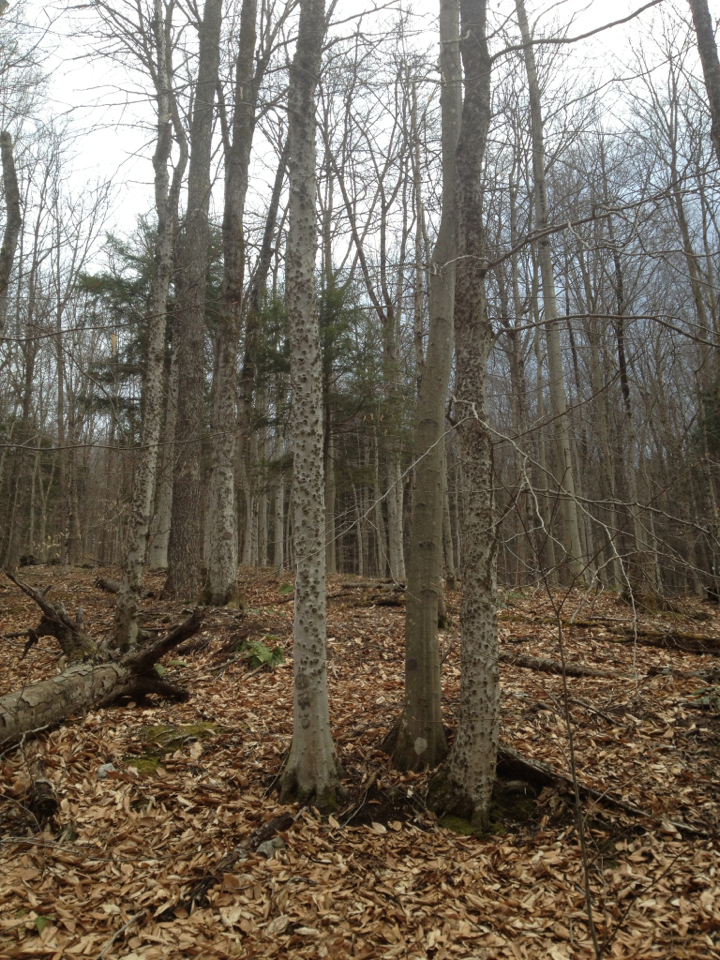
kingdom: Plantae
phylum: Tracheophyta
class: Magnoliopsida
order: Fagales
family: Fagaceae
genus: Fagus
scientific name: Fagus grandifolia
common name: American beech
